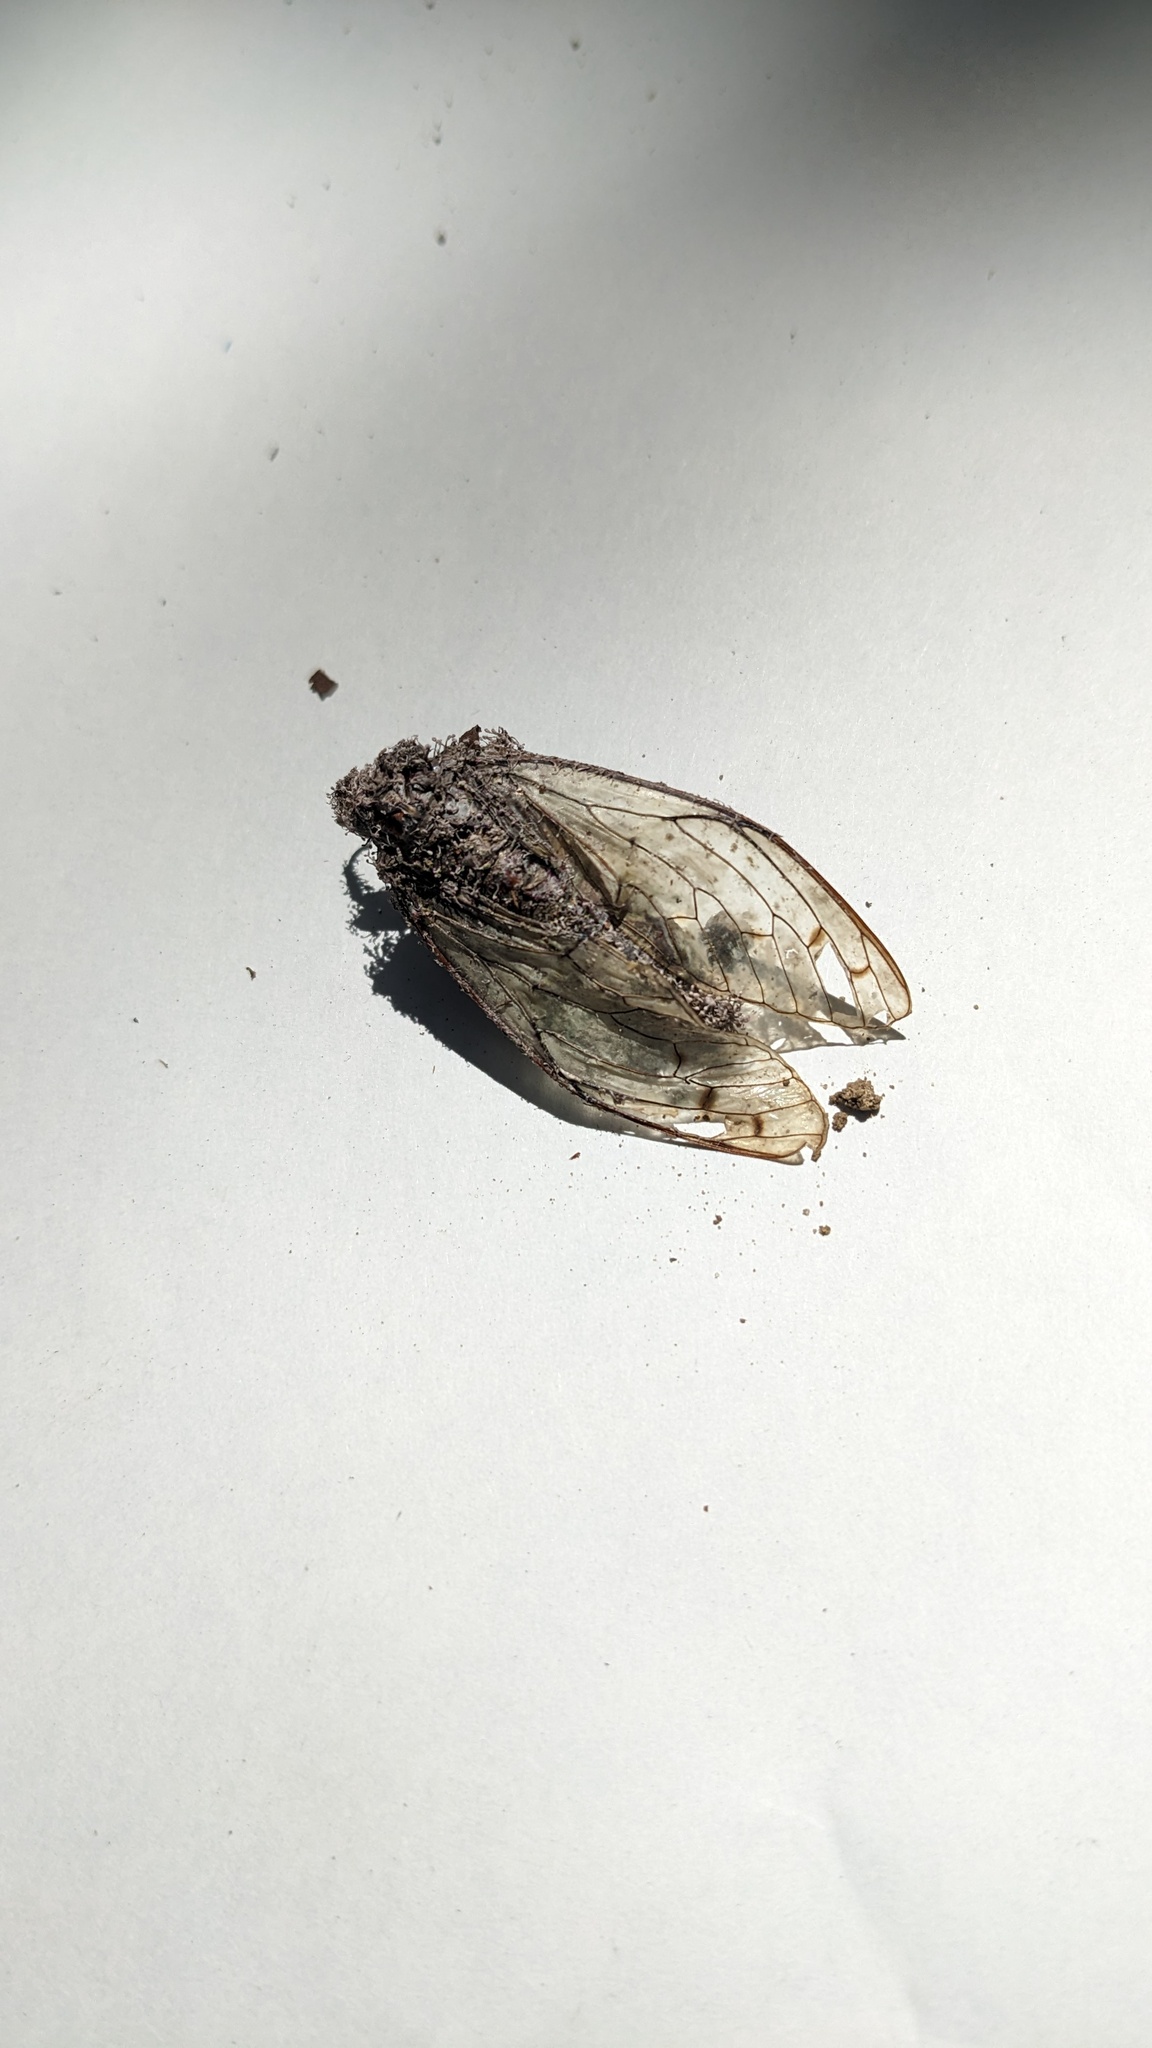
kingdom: Fungi
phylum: Ascomycota
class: Sordariomycetes
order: Hypocreales
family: Ophiocordycipitaceae
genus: Purpureocillium
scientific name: Purpureocillium takamizusanense
